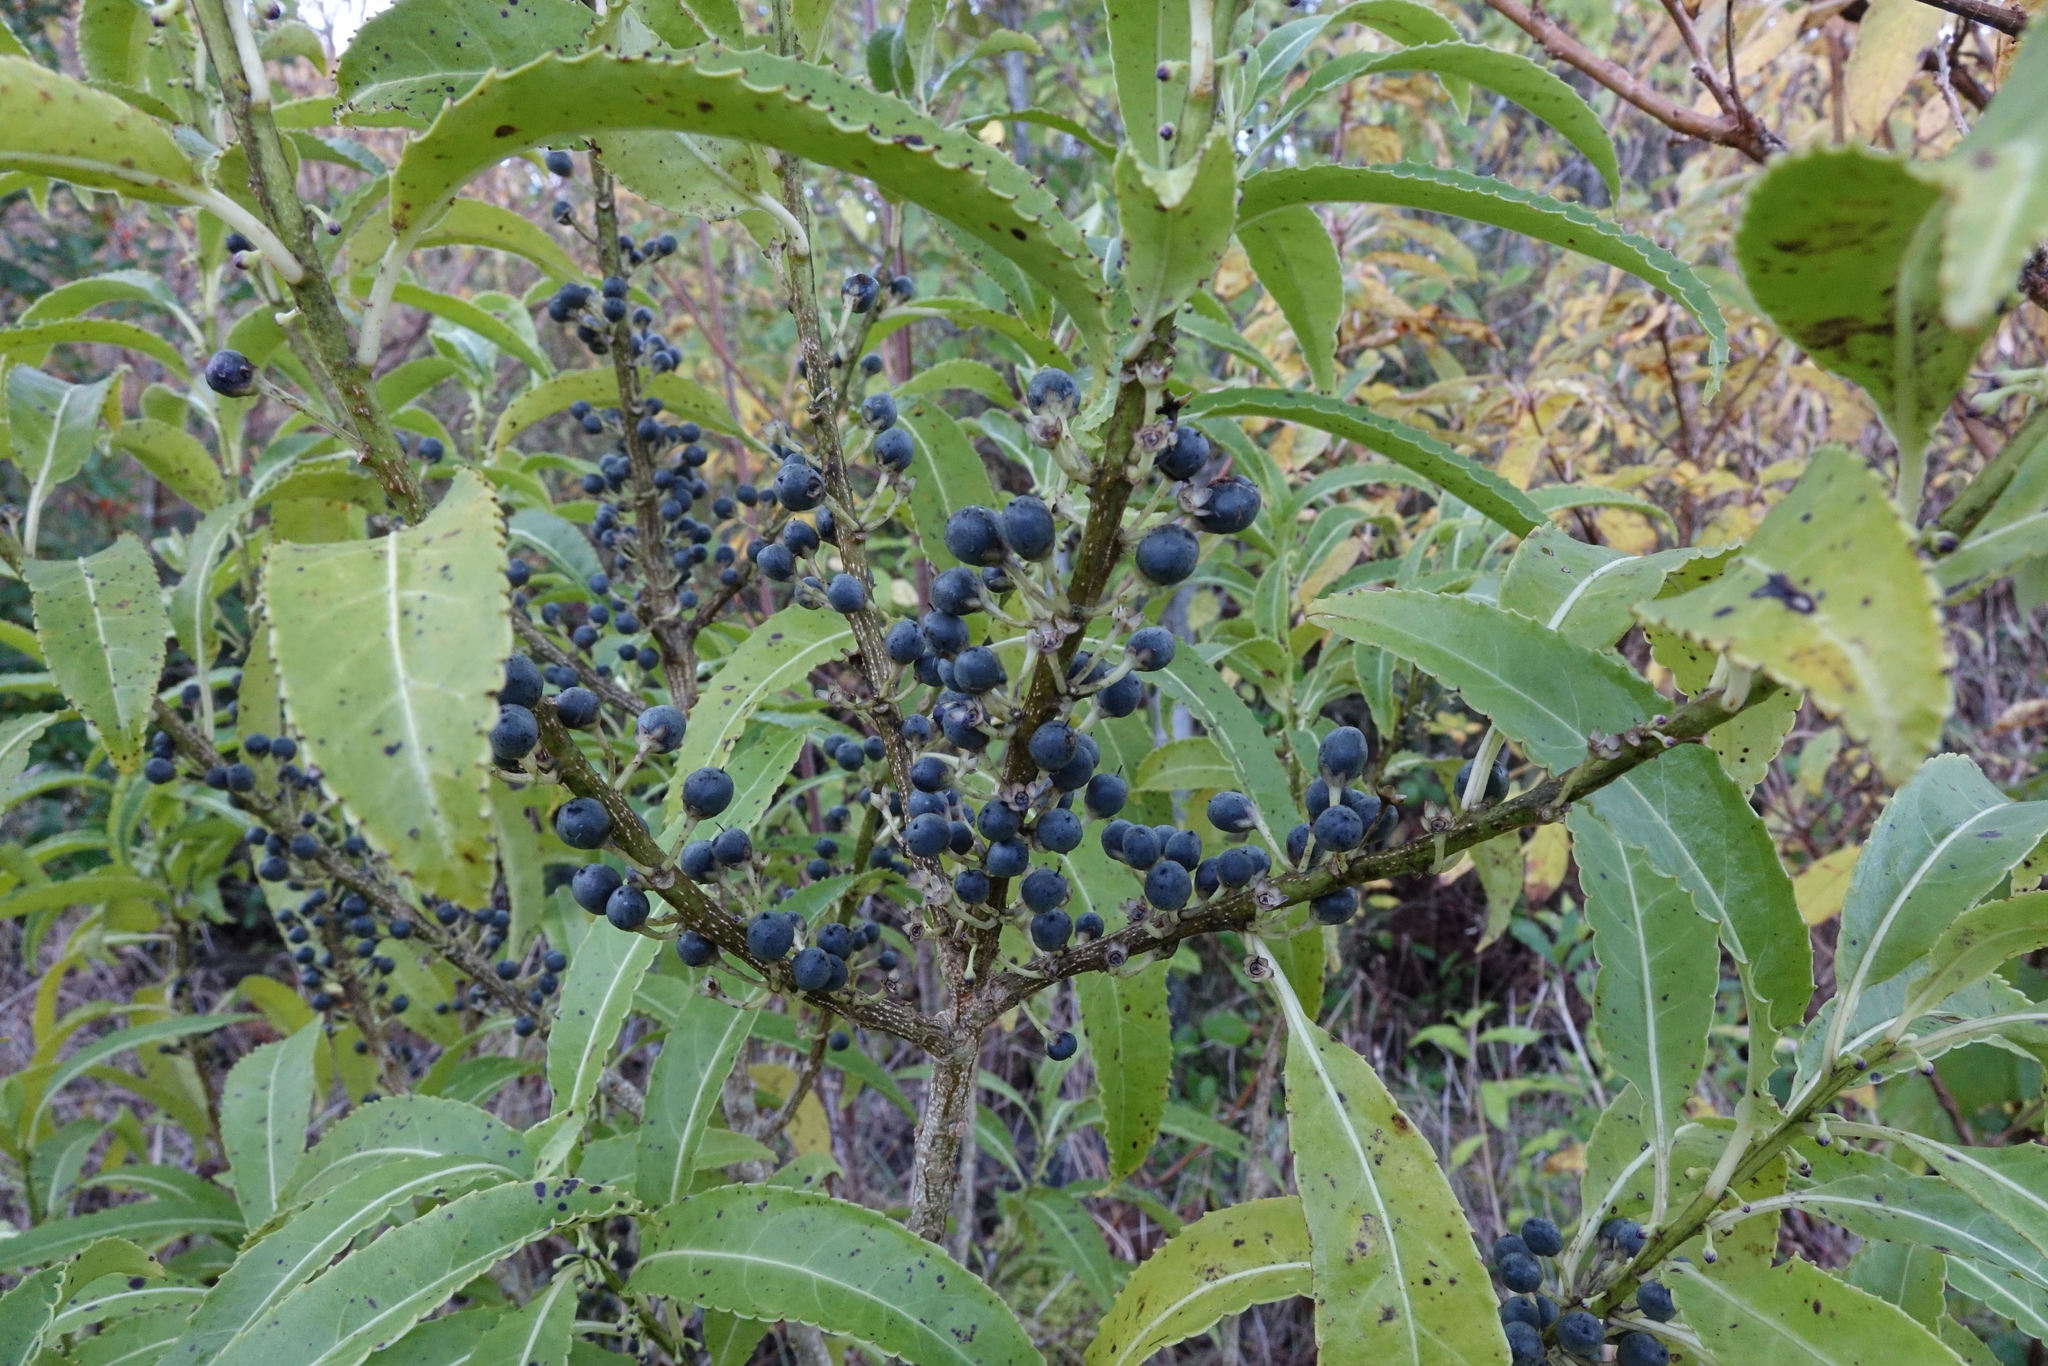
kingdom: Plantae
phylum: Tracheophyta
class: Magnoliopsida
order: Malpighiales
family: Violaceae
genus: Melicytus
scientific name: Melicytus lanceolatus
